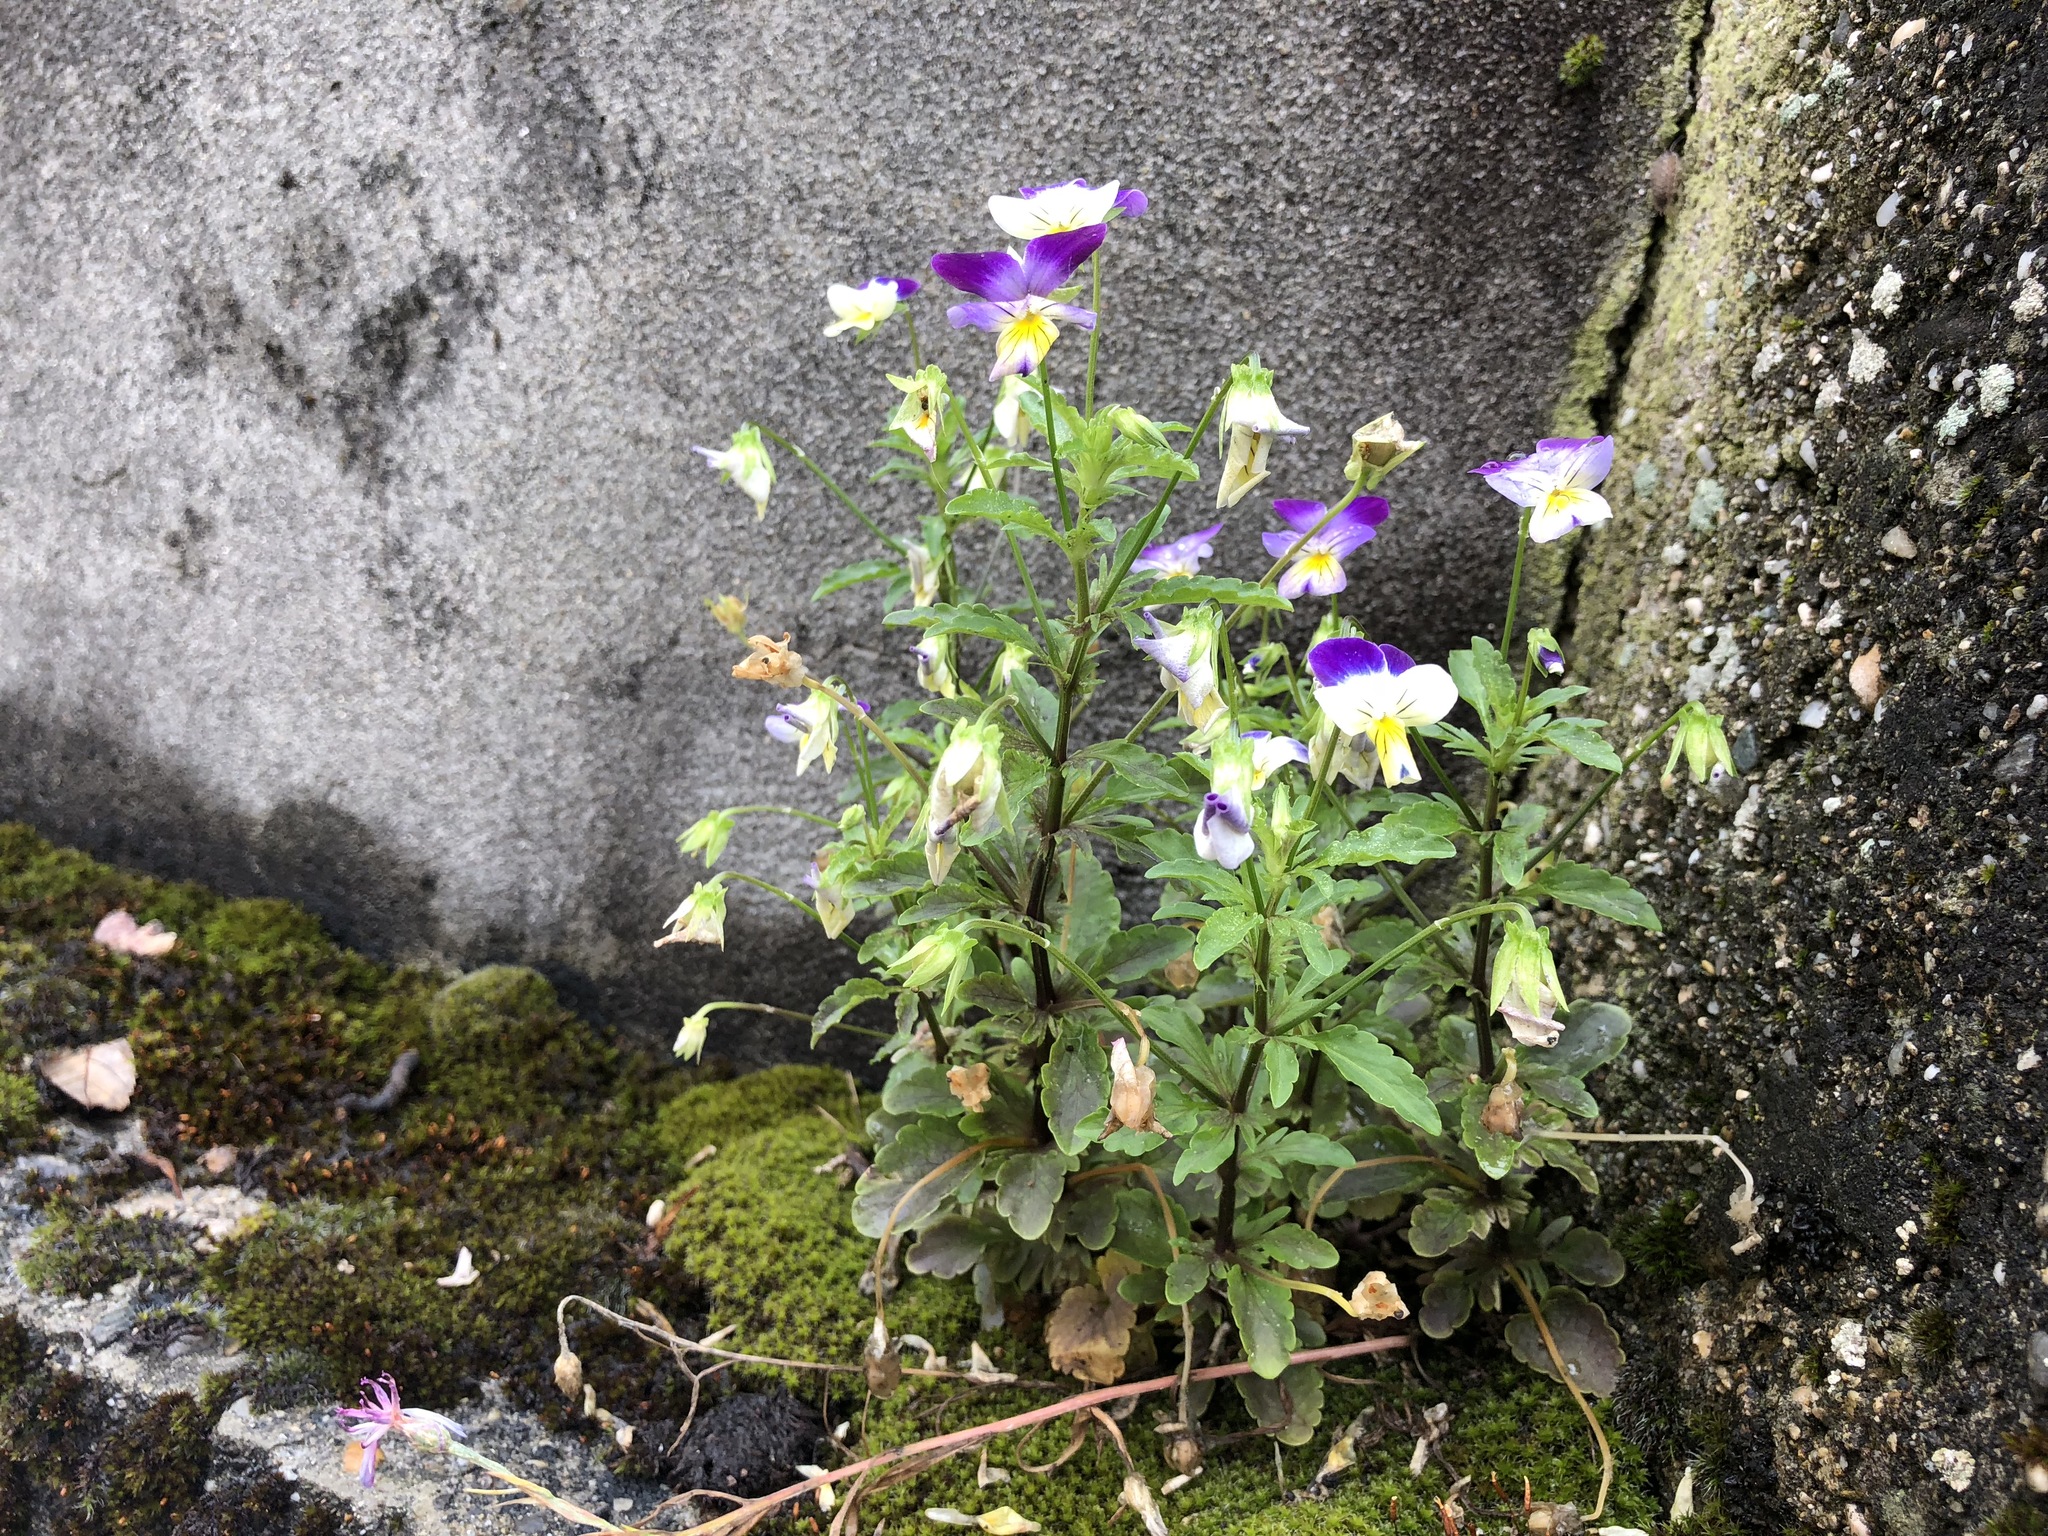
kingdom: Plantae
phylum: Tracheophyta
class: Magnoliopsida
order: Malpighiales
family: Violaceae
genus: Viola
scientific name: Viola williamsii
